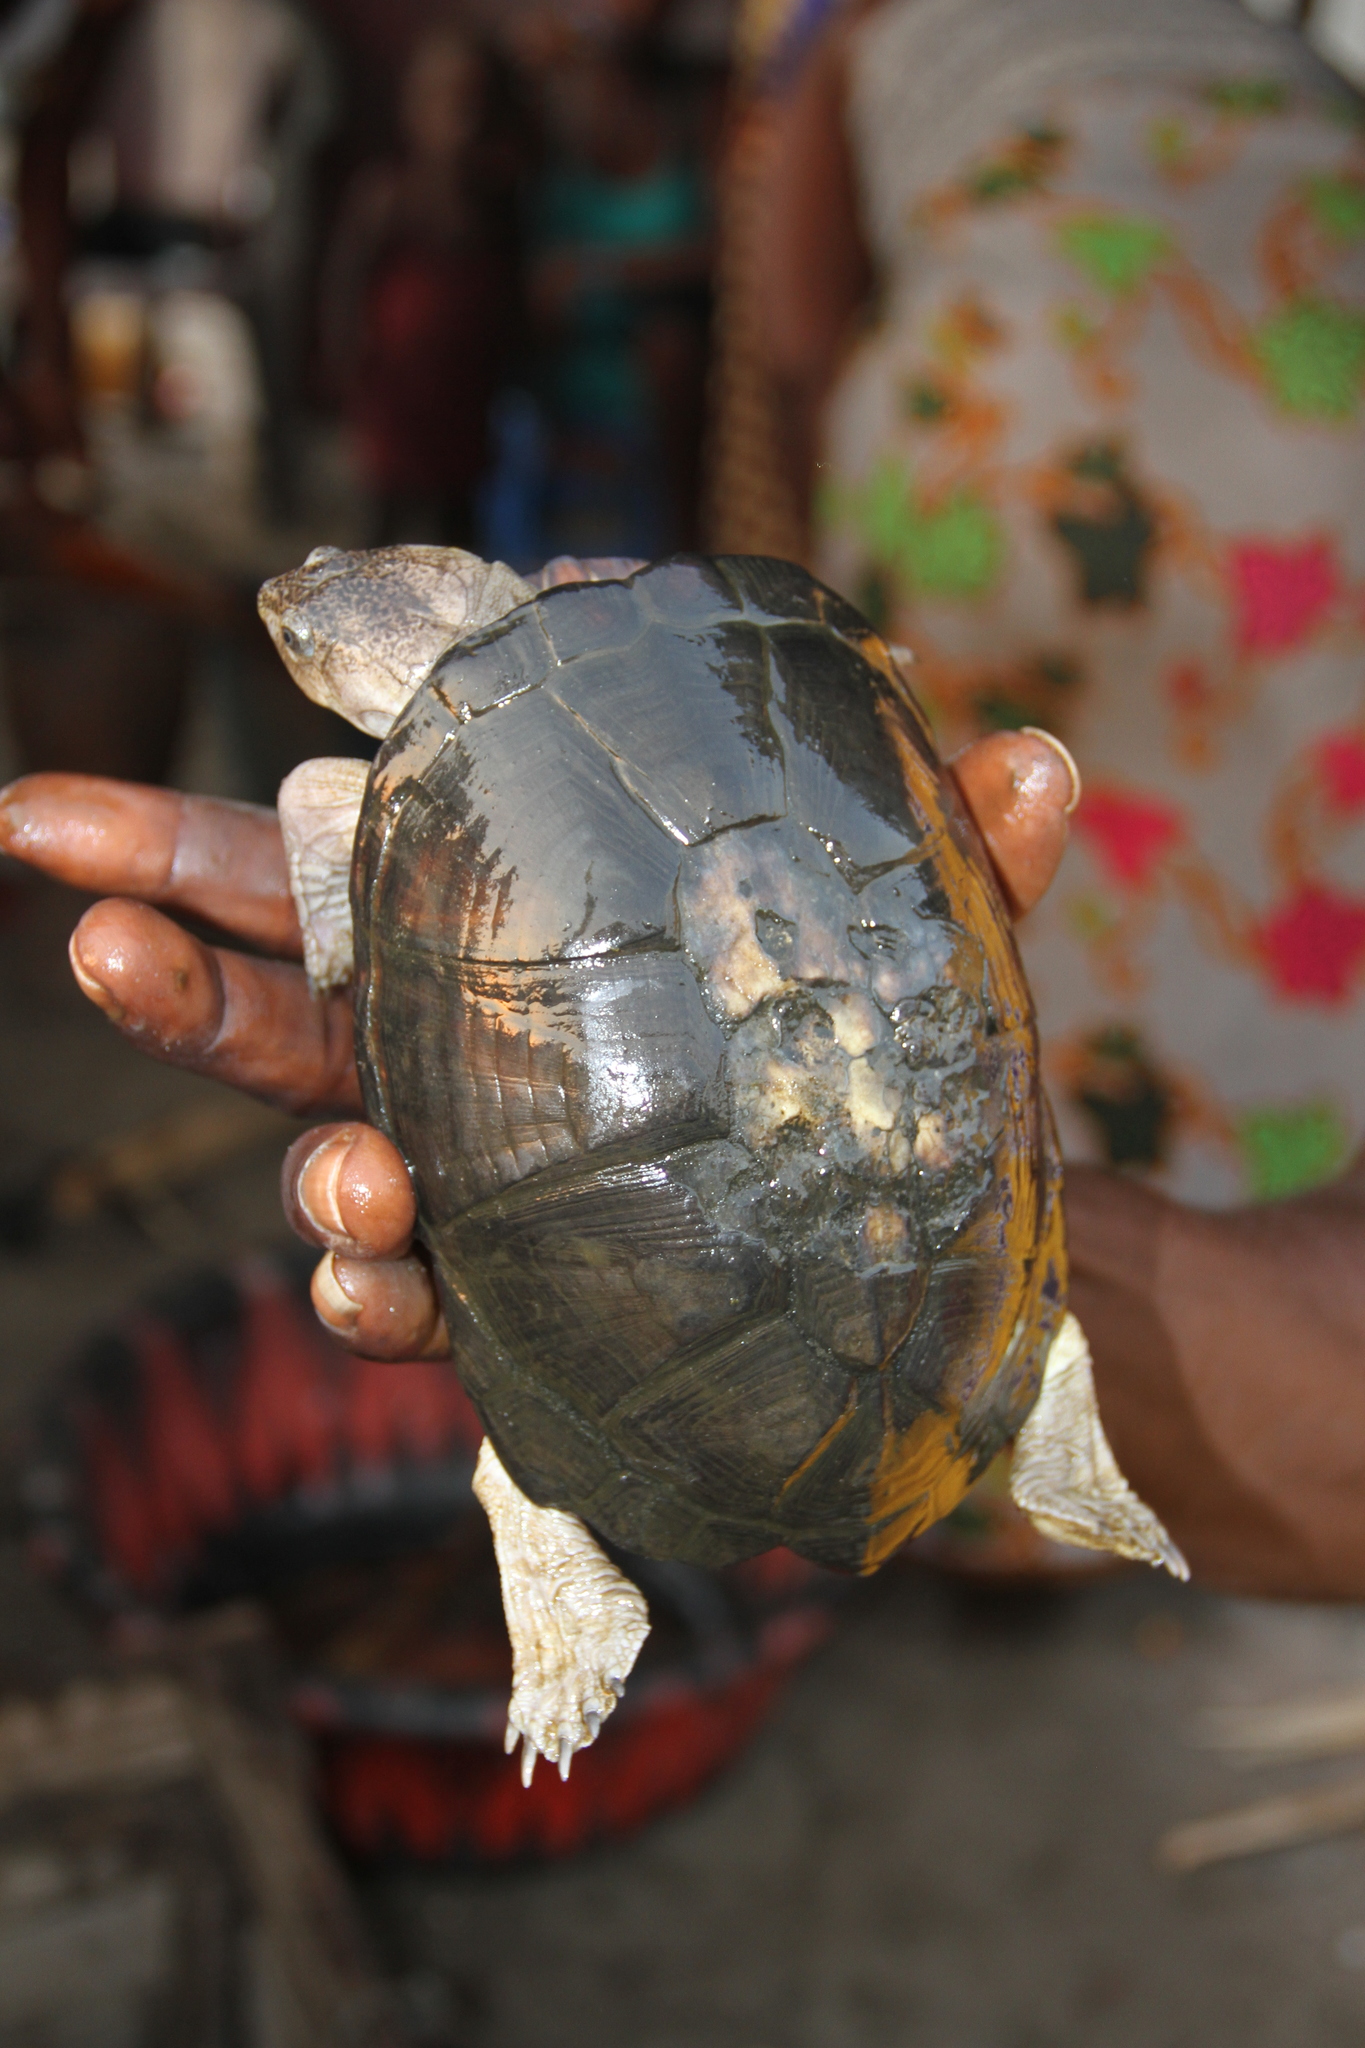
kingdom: Animalia
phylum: Chordata
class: Testudines
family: Pelomedusidae
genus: Pelusios
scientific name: Pelusios castaneus
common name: West african mud turtle
